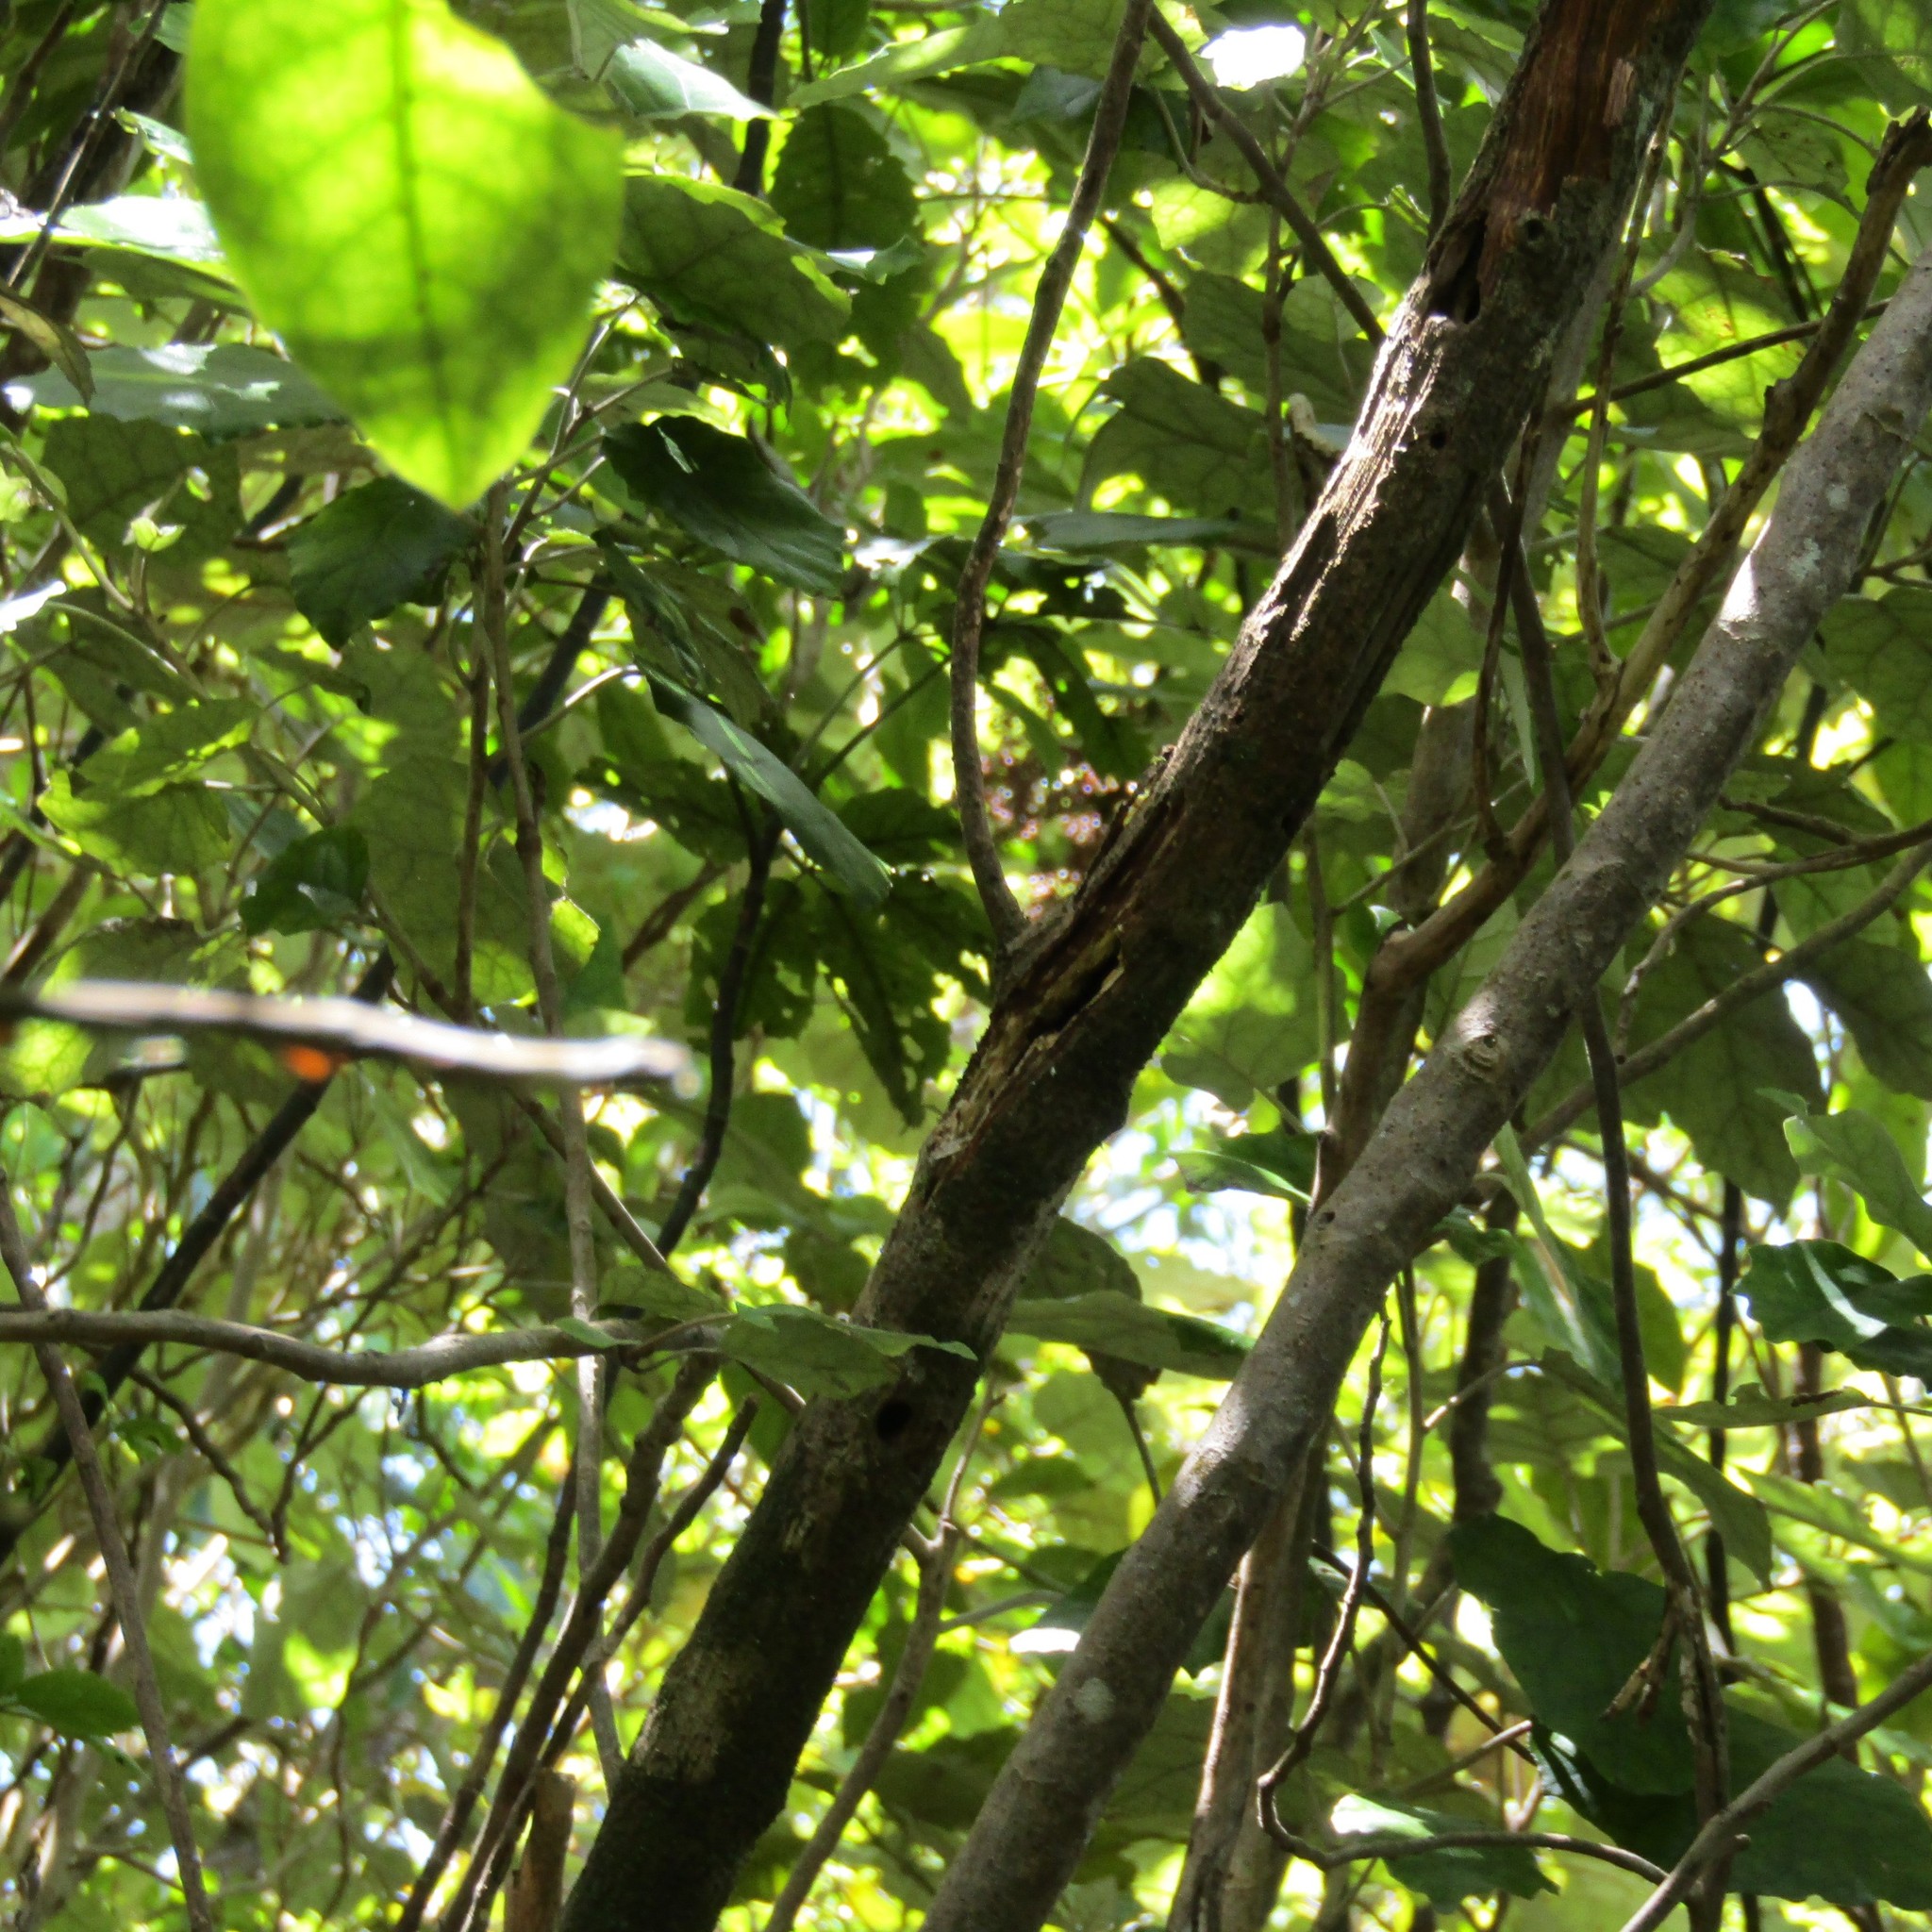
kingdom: Animalia
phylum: Chordata
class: Aves
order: Psittaciformes
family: Psittacidae
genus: Nestor
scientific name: Nestor meridionalis
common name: New zealand kaka
